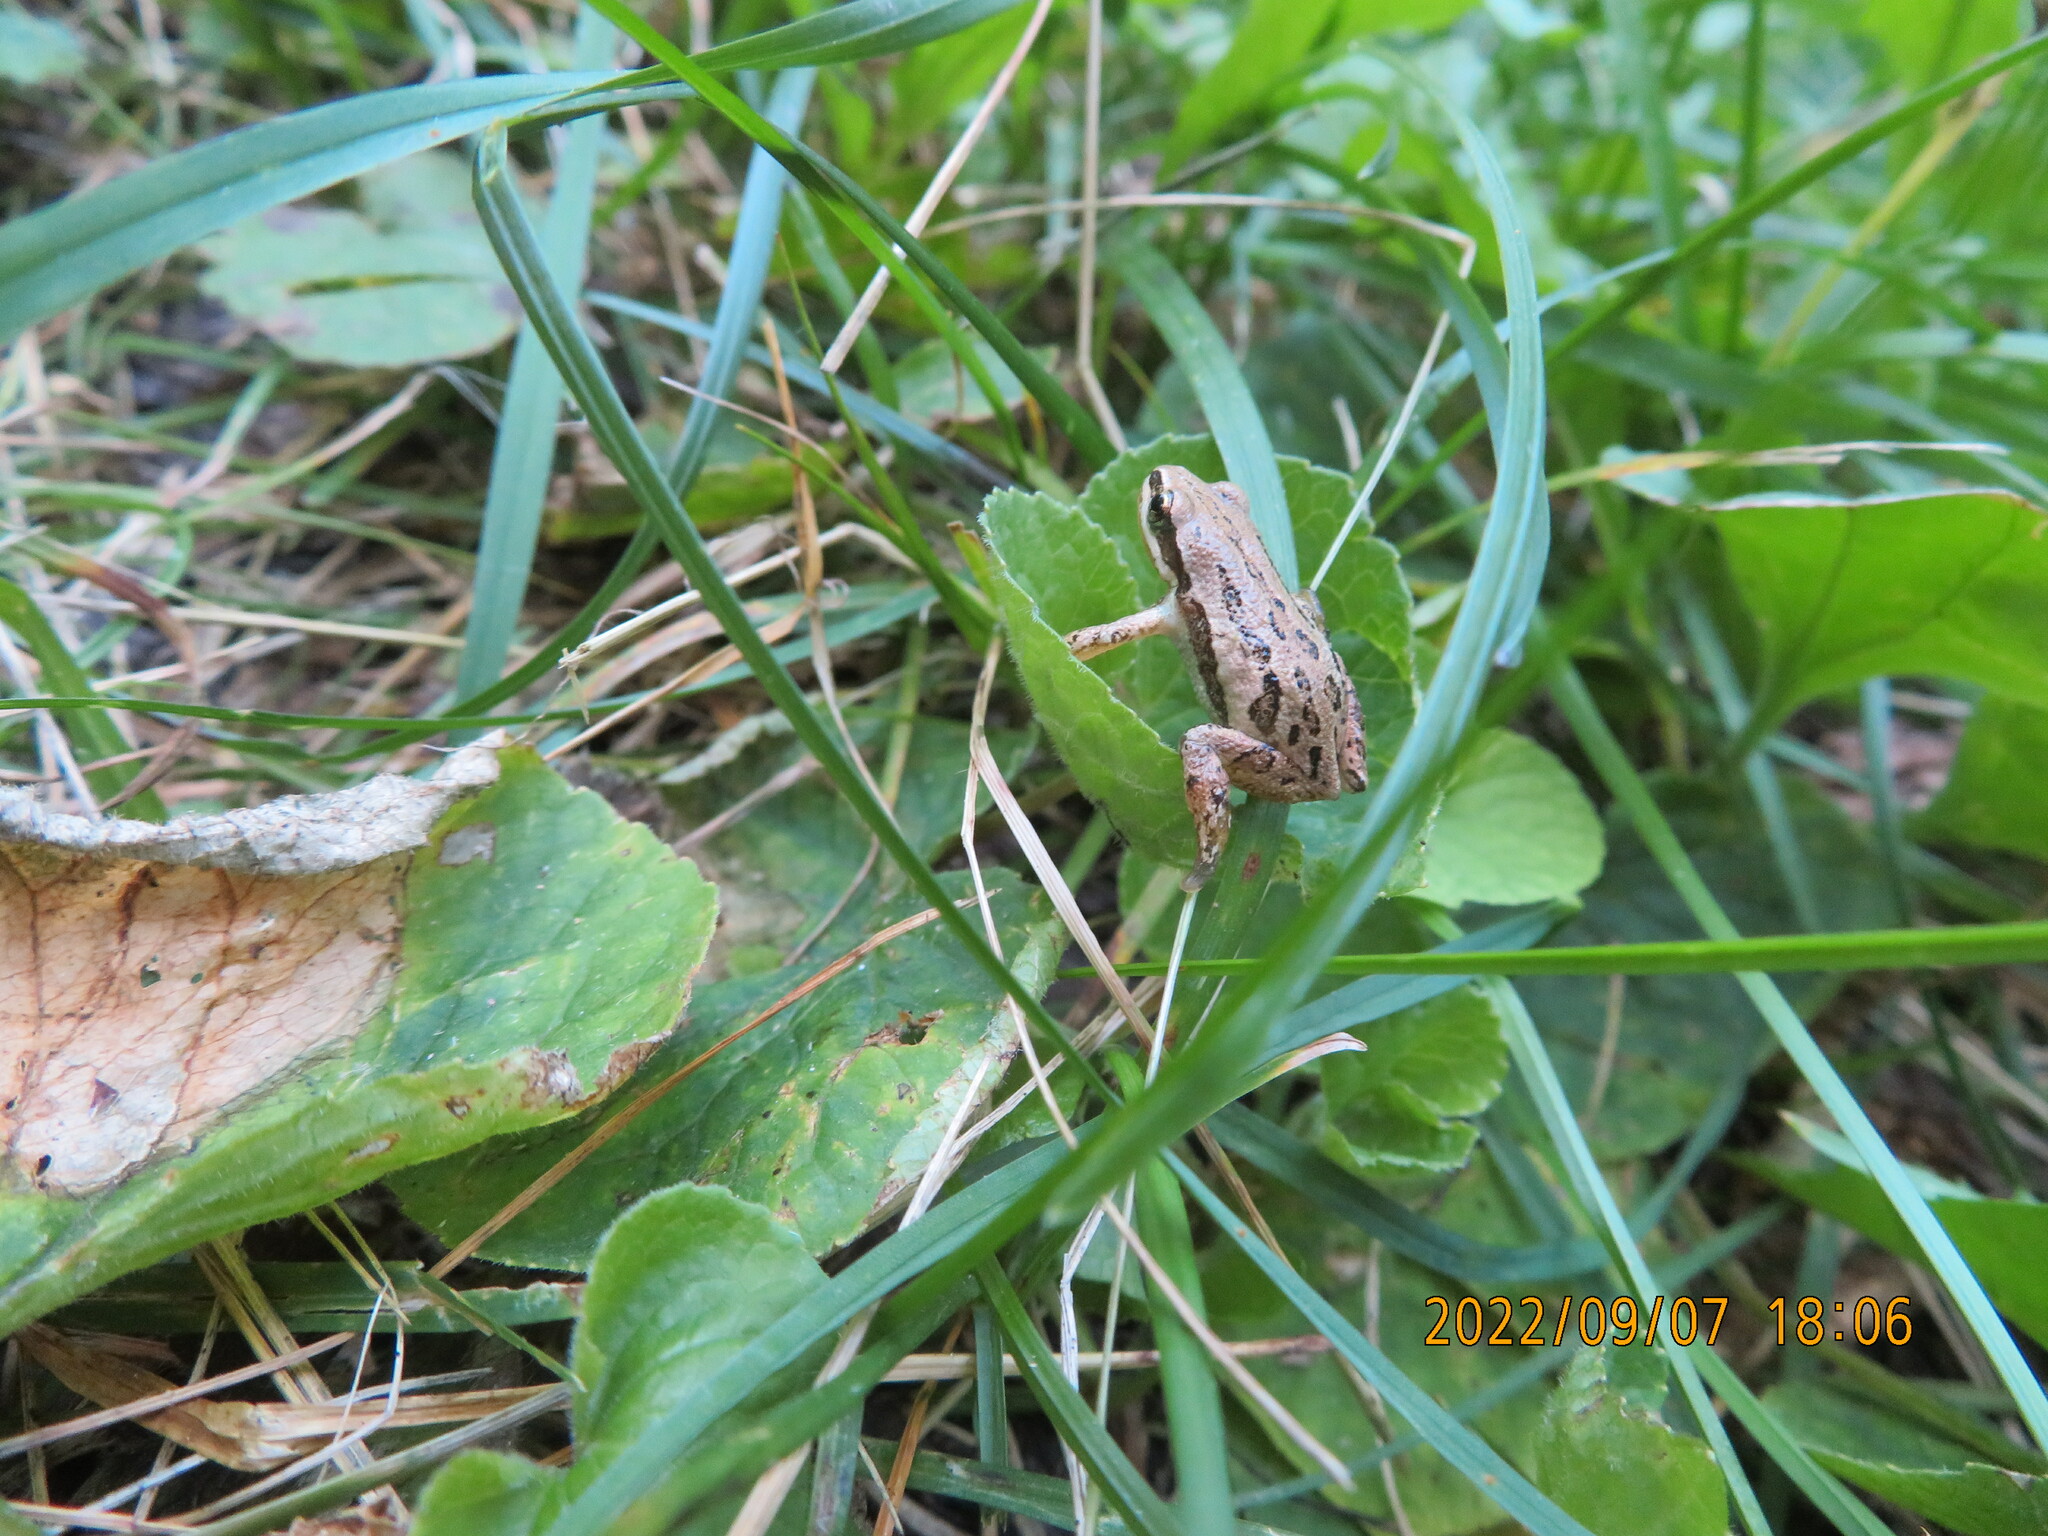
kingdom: Animalia
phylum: Chordata
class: Amphibia
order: Anura
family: Hylidae
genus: Pseudacris
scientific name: Pseudacris maculata
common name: Boreal chorus frog
